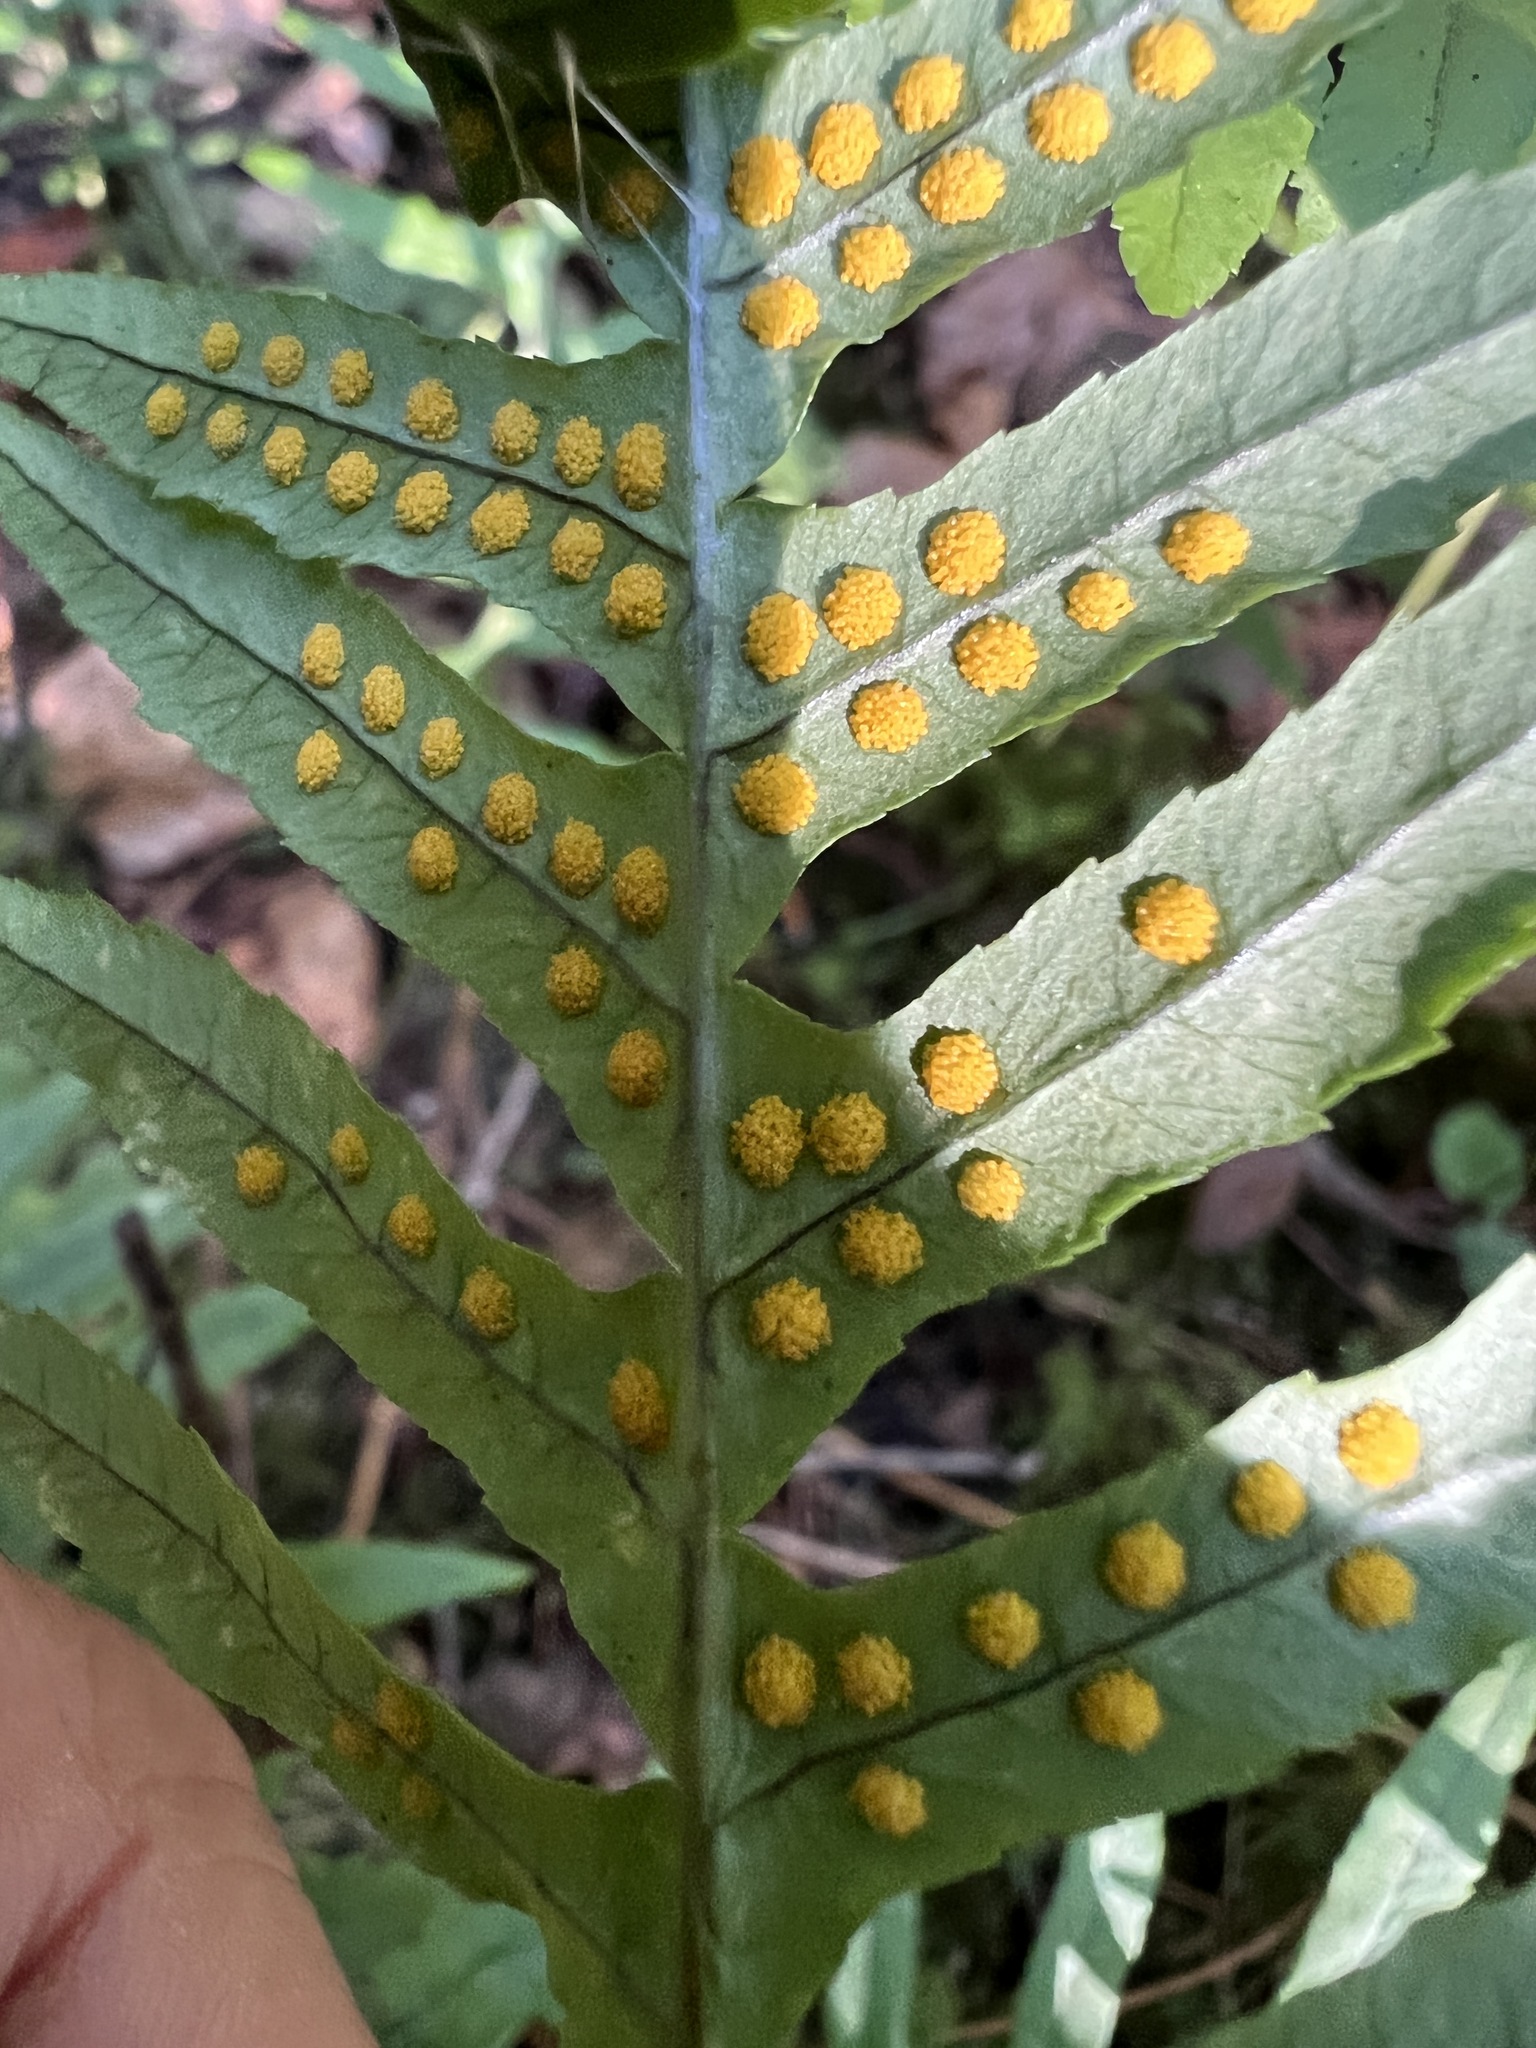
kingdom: Plantae
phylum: Tracheophyta
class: Polypodiopsida
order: Polypodiales
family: Polypodiaceae
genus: Polypodium
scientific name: Polypodium glycyrrhiza
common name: Licorice fern
